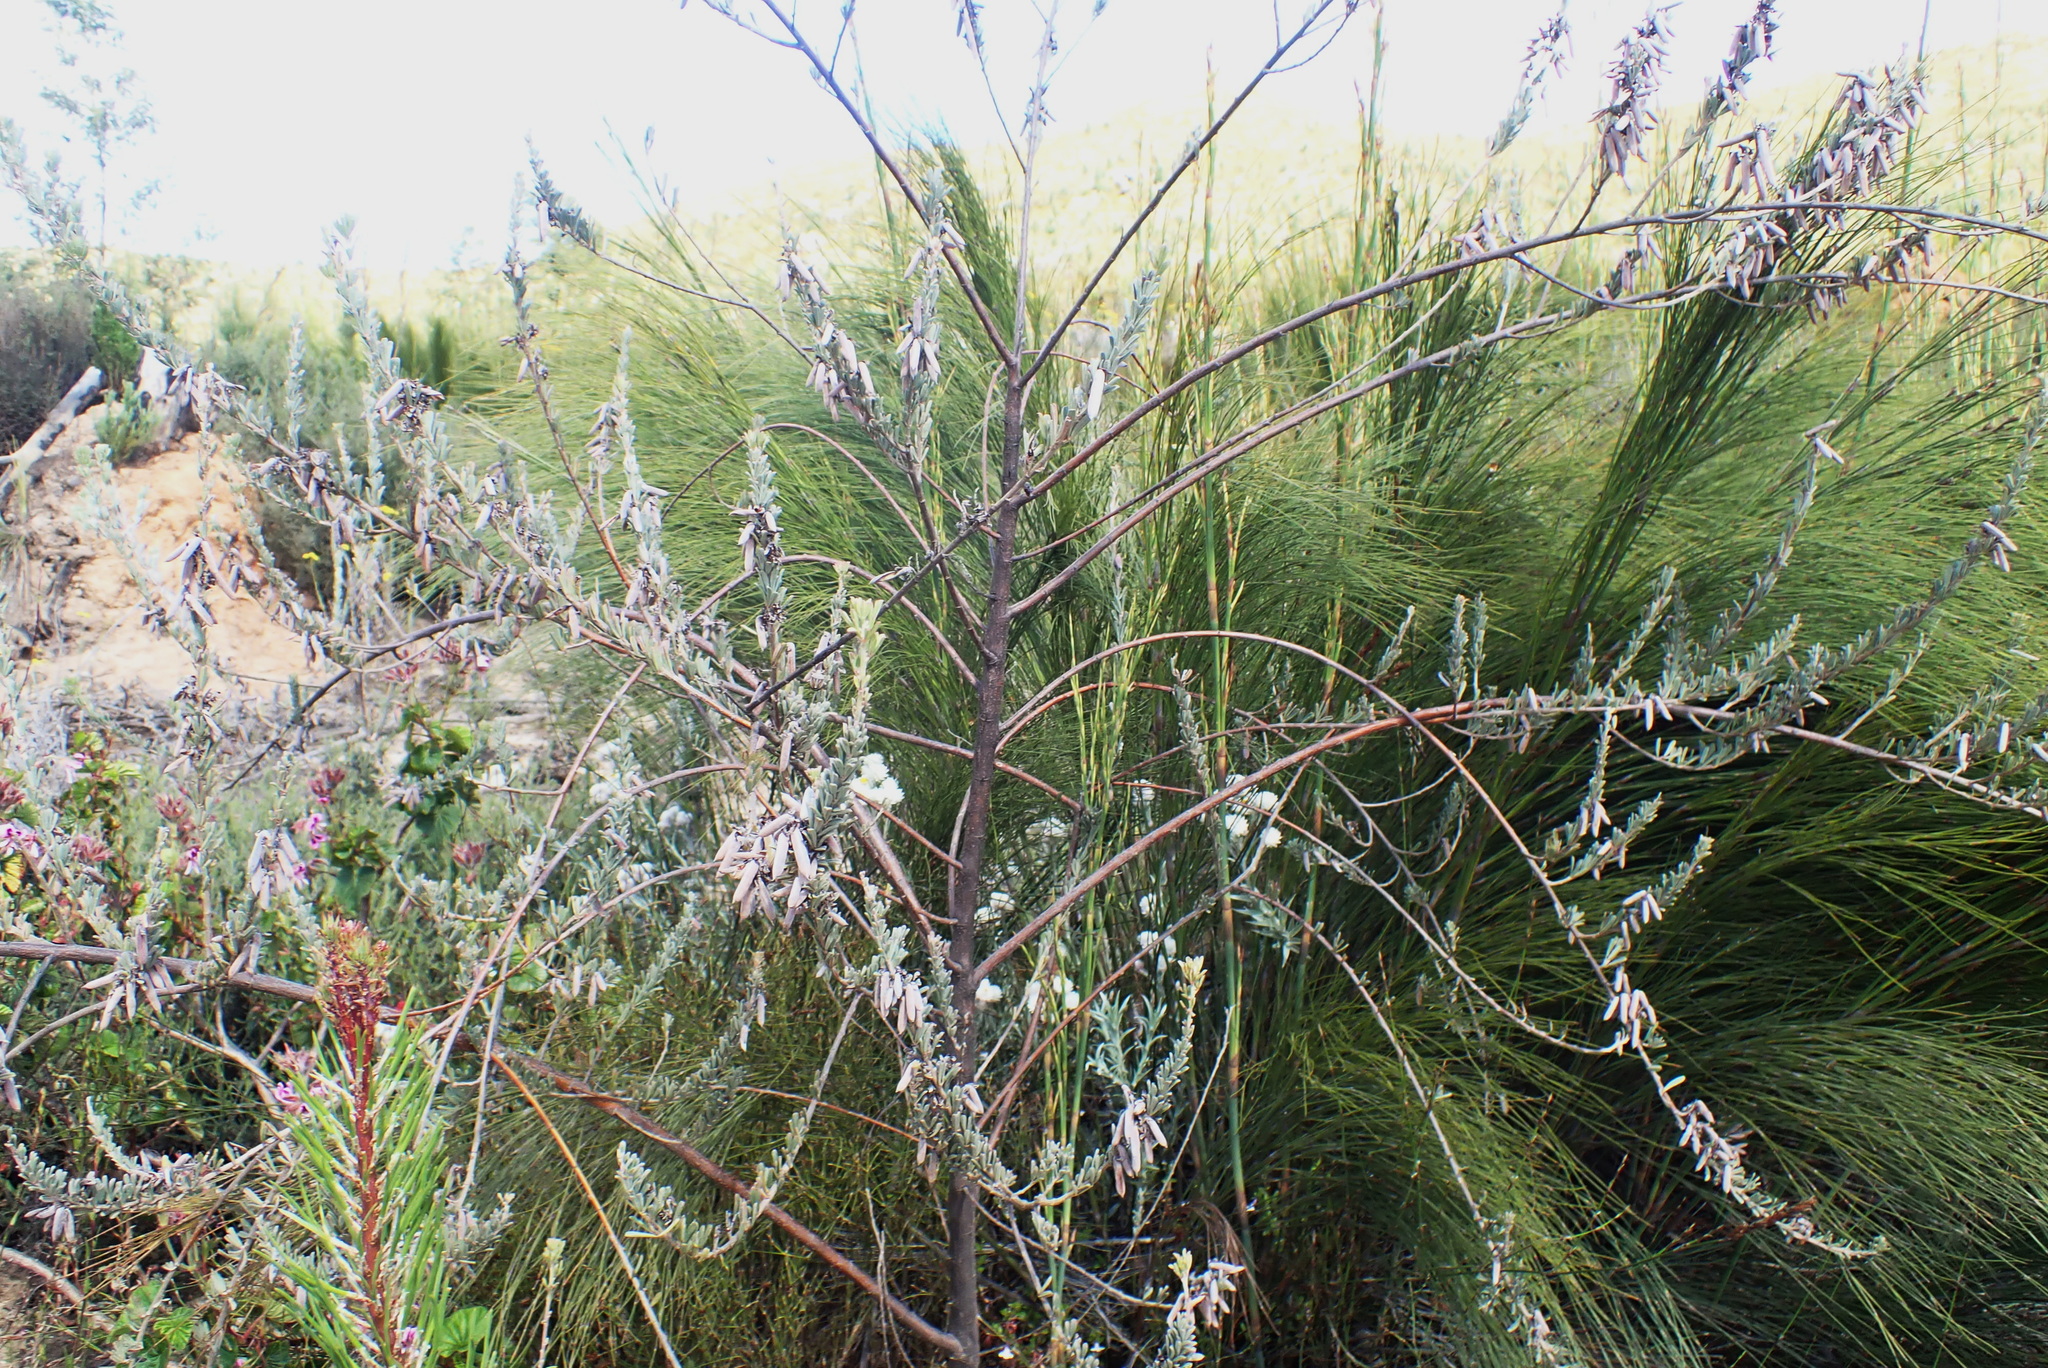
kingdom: Plantae
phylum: Tracheophyta
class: Magnoliopsida
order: Fabales
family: Fabaceae
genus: Indigofera
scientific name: Indigofera flabellata
